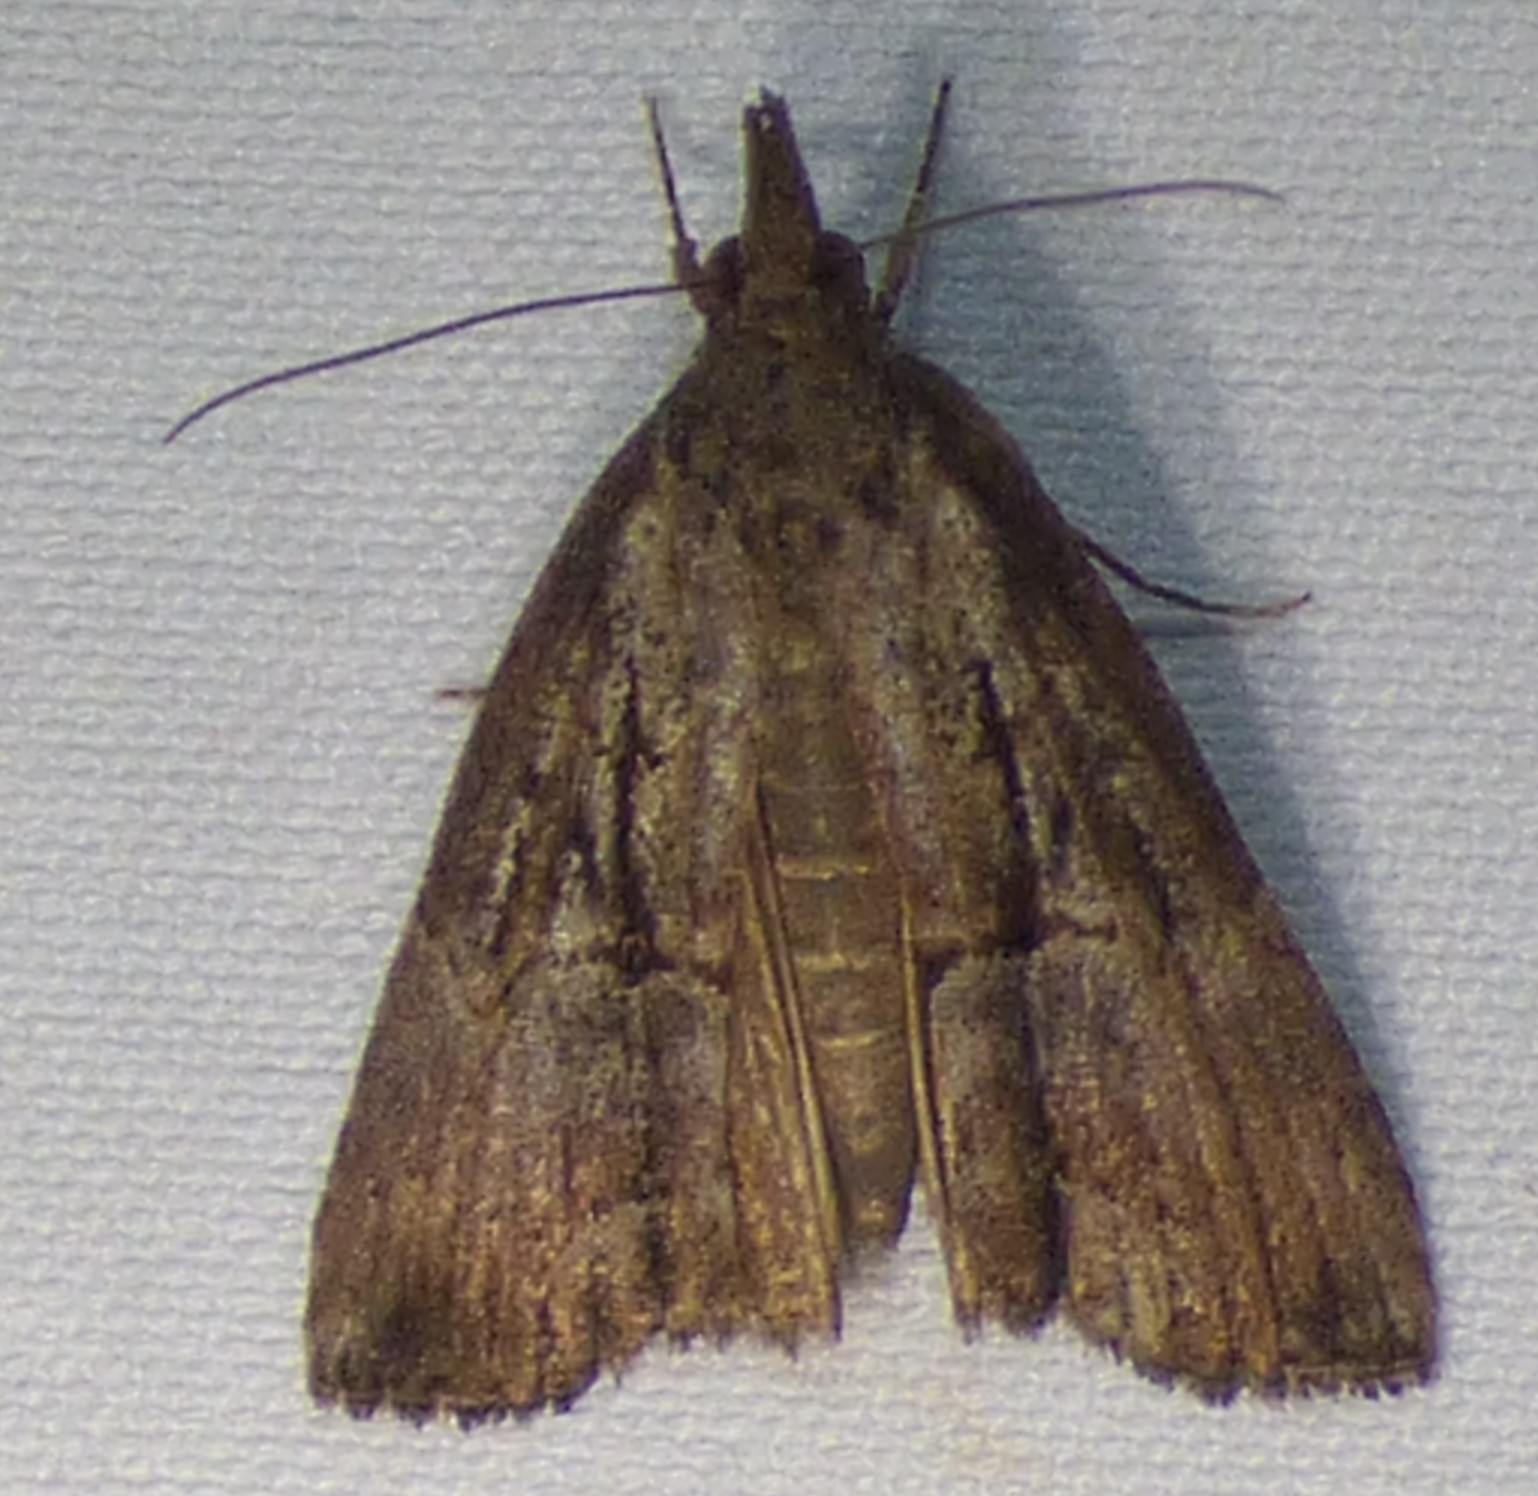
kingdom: Animalia
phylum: Arthropoda
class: Insecta
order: Lepidoptera
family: Erebidae
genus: Hypena
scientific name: Hypena scabra
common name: Green cloverworm
